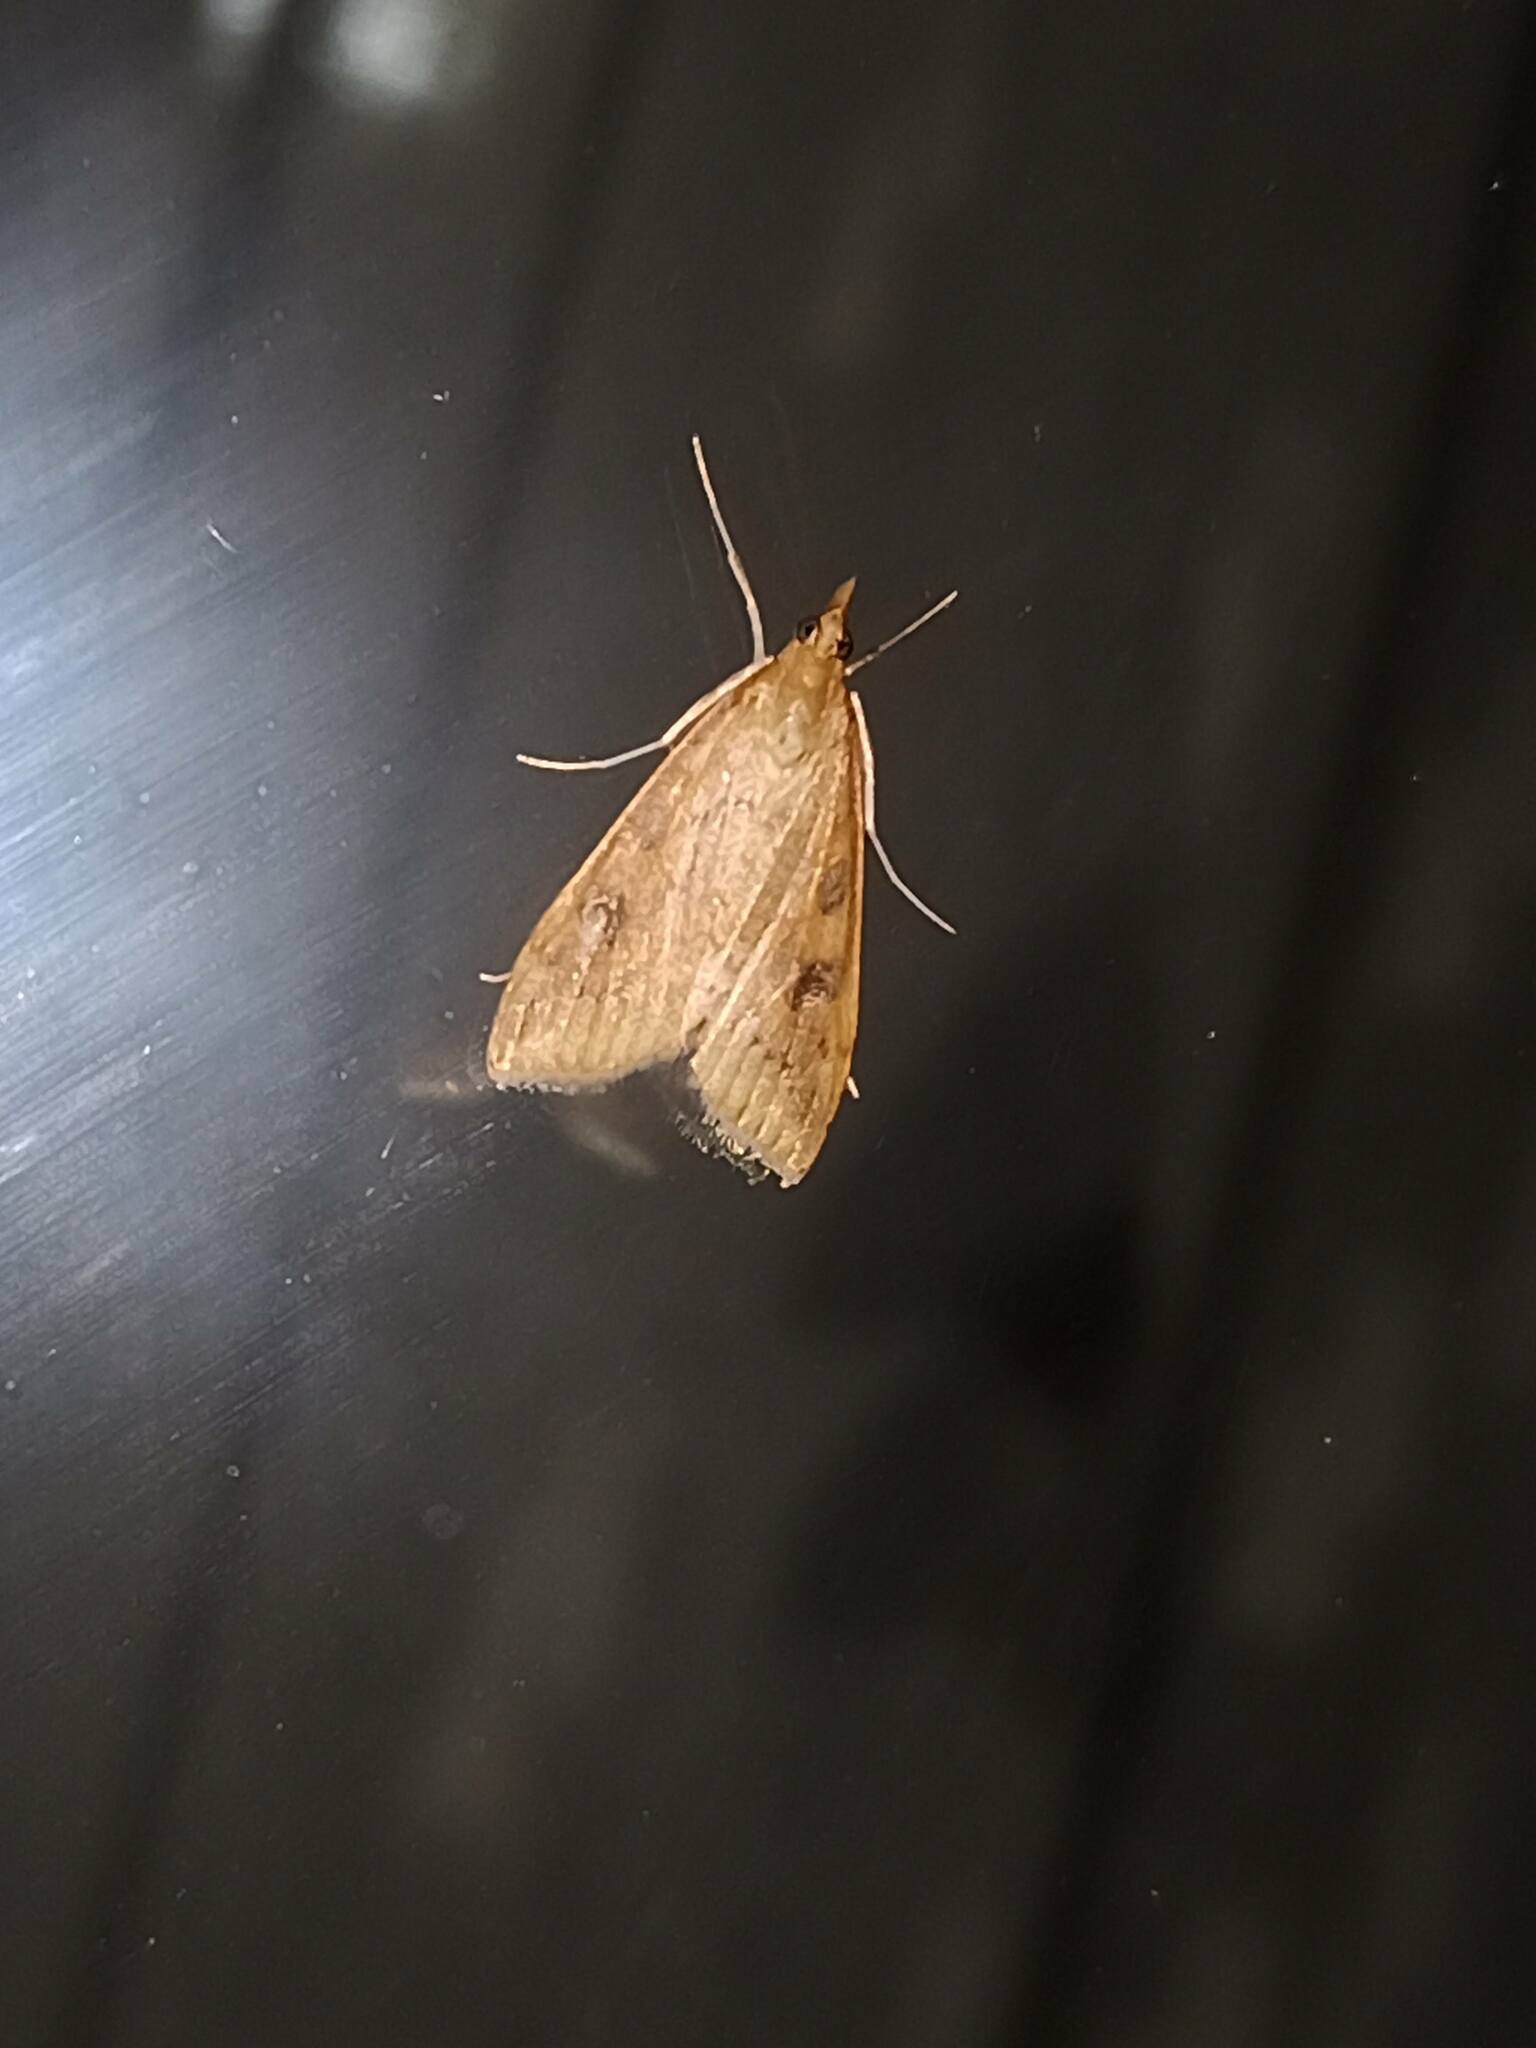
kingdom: Animalia
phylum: Arthropoda
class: Insecta
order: Lepidoptera
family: Crambidae
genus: Udea
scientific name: Udea ferrugalis
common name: Rusty dot
